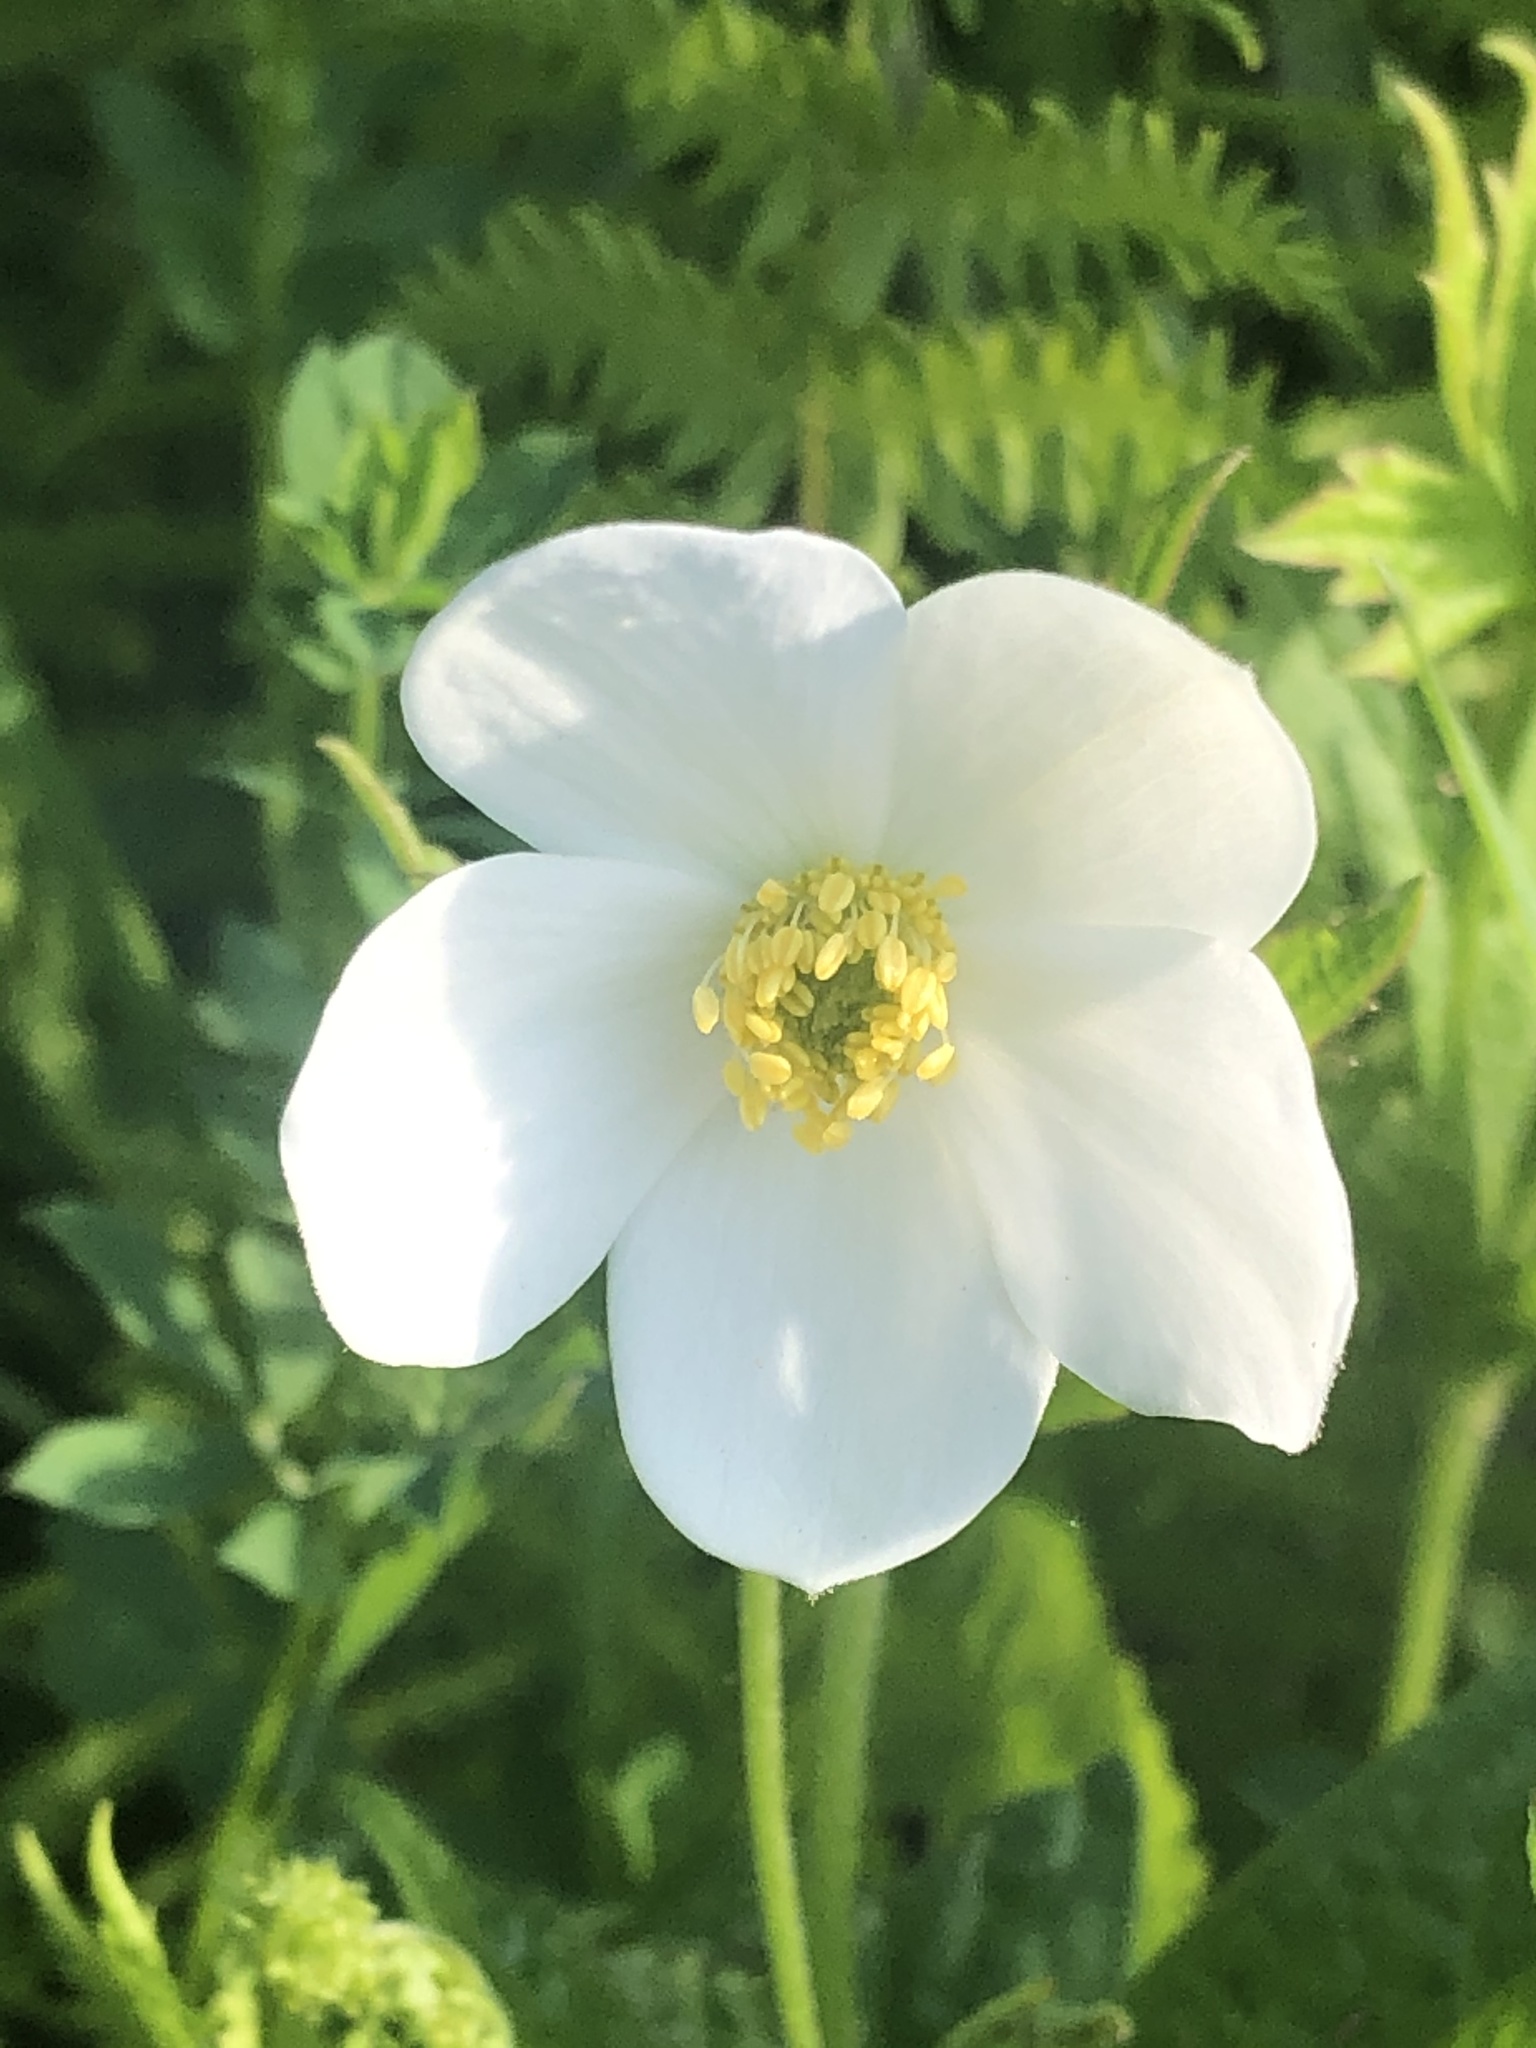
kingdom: Plantae
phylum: Tracheophyta
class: Magnoliopsida
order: Ranunculales
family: Ranunculaceae
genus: Anemonastrum
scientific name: Anemonastrum canadense
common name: Canada anemone
